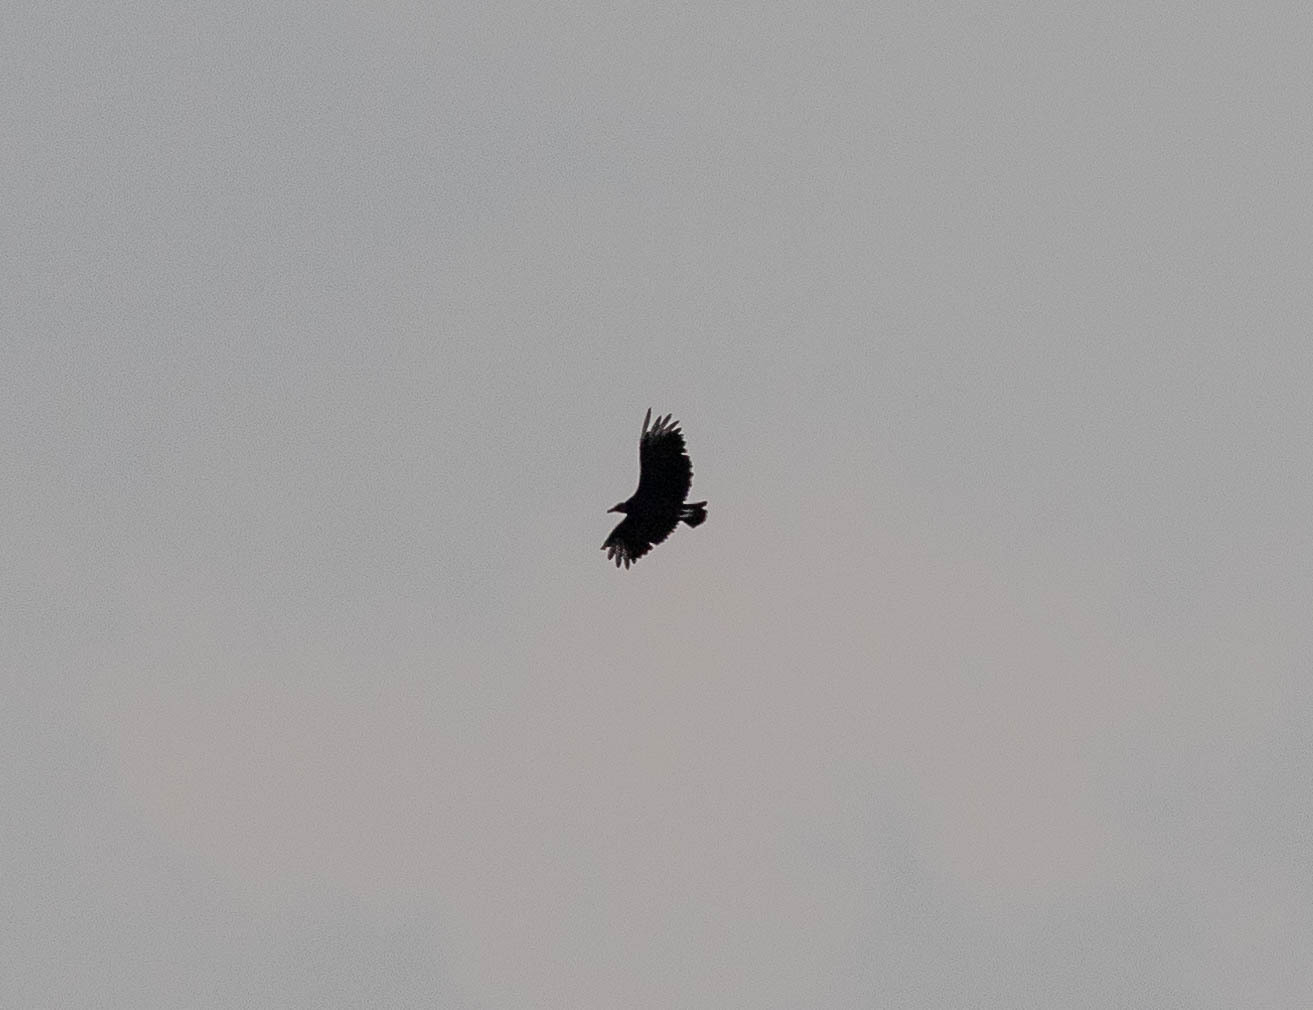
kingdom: Animalia
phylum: Chordata
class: Aves
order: Accipitriformes
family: Cathartidae
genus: Coragyps
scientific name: Coragyps atratus
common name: Black vulture
